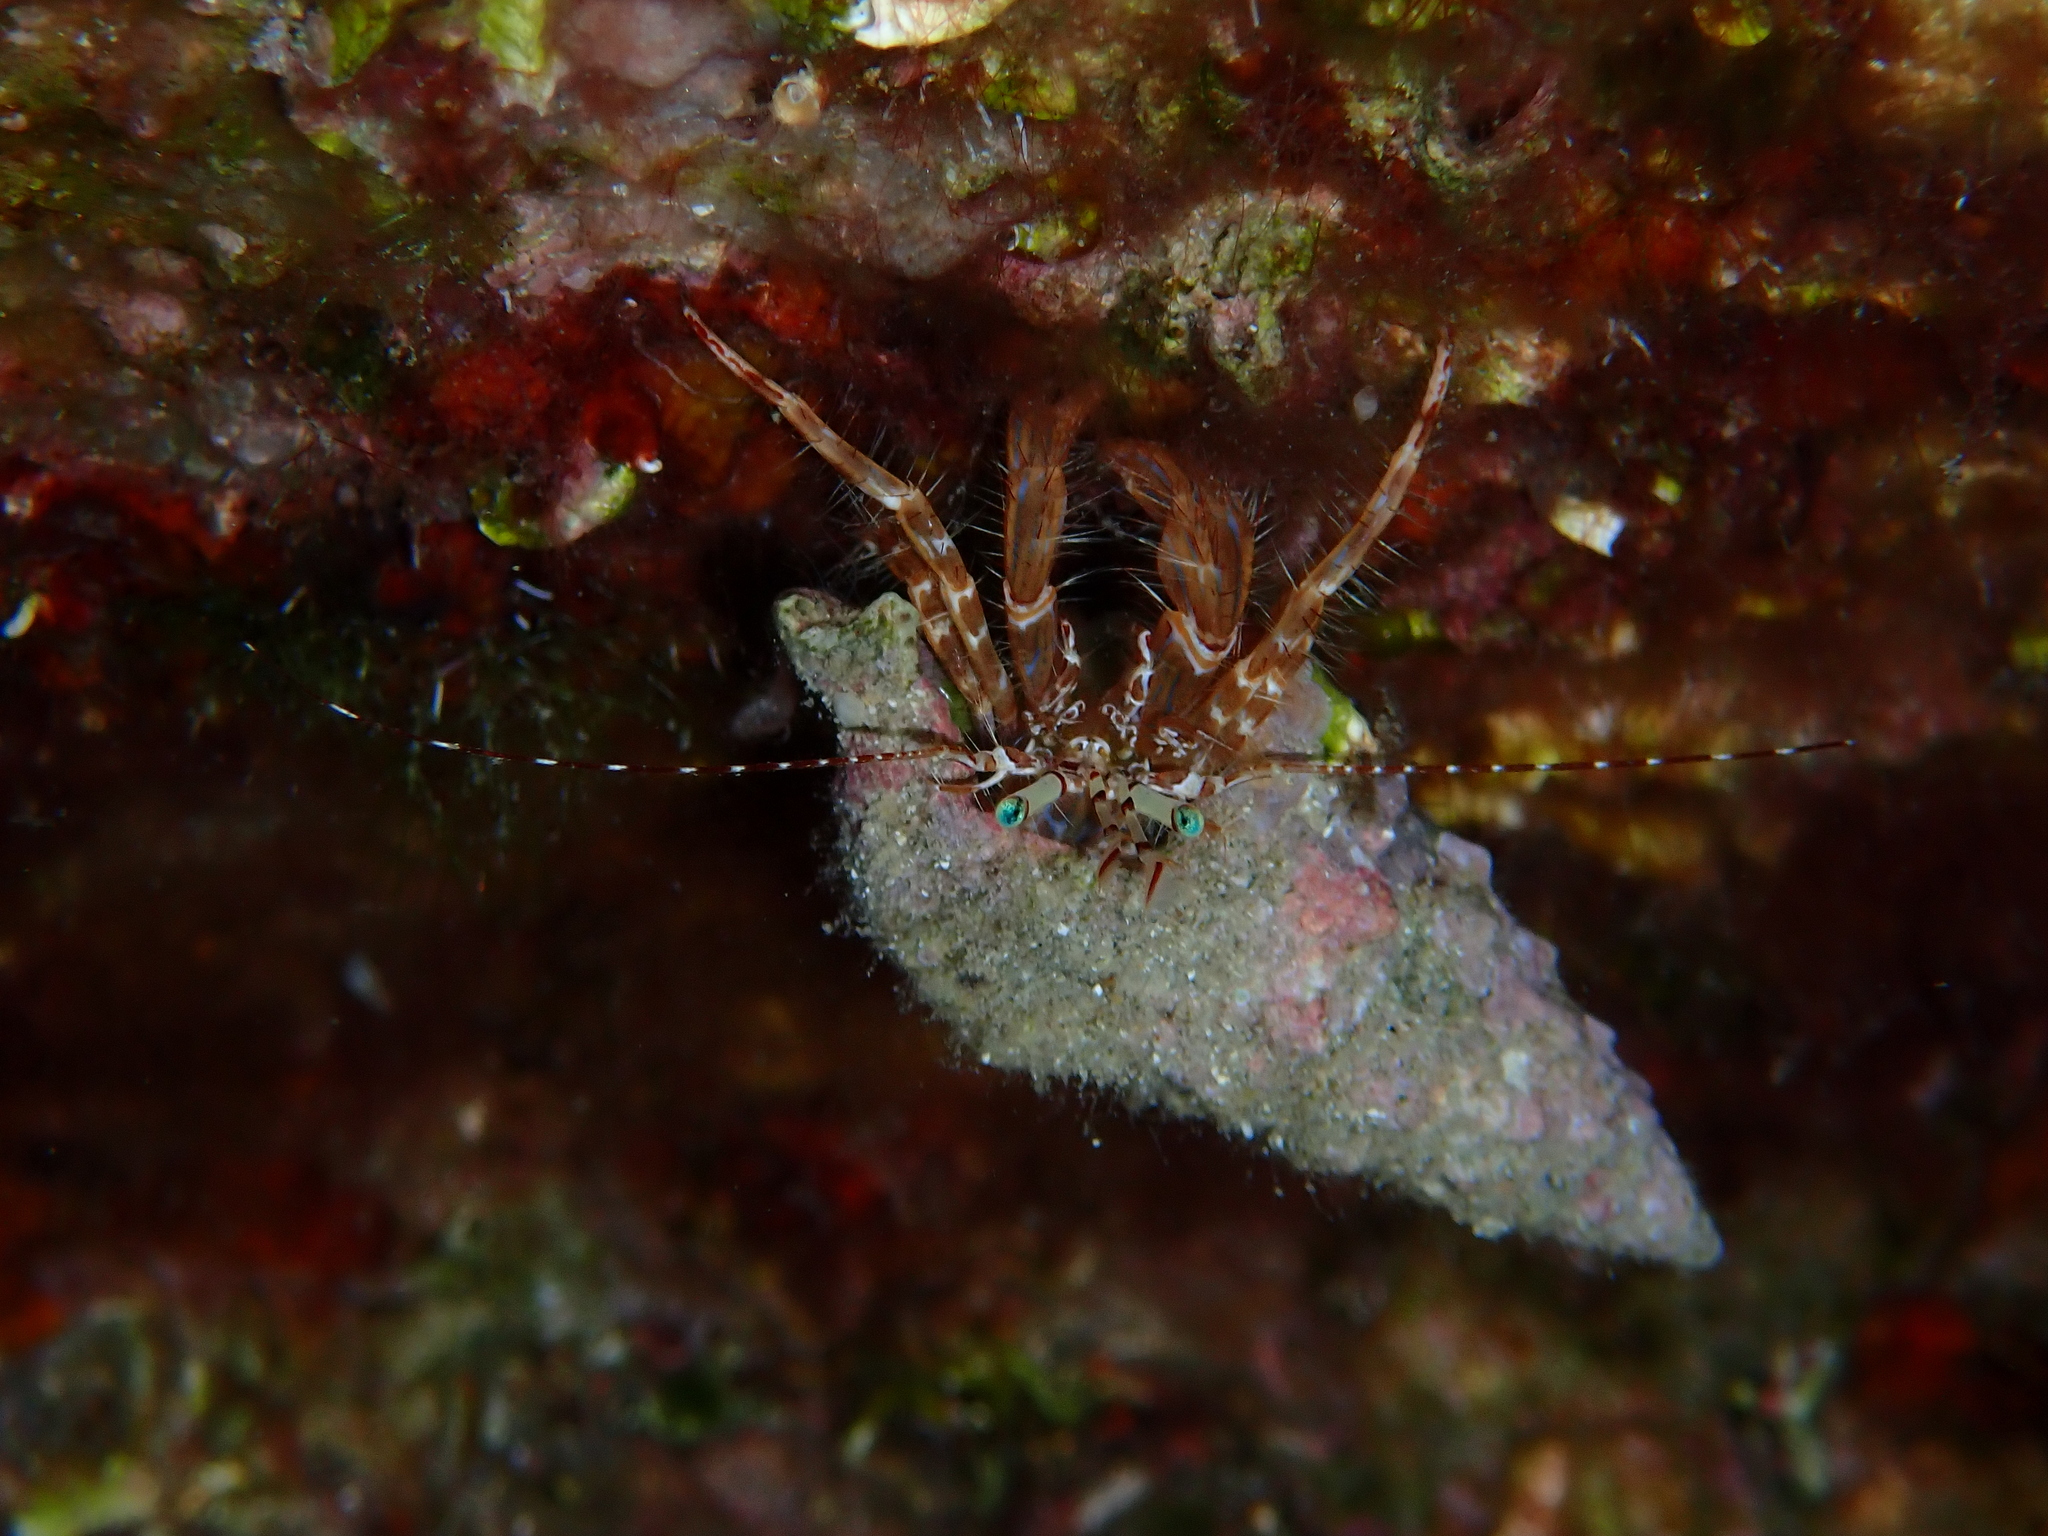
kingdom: Animalia
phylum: Arthropoda
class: Malacostraca
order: Decapoda
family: Paguridae
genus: Pagurus
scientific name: Pagurus anachoretus
